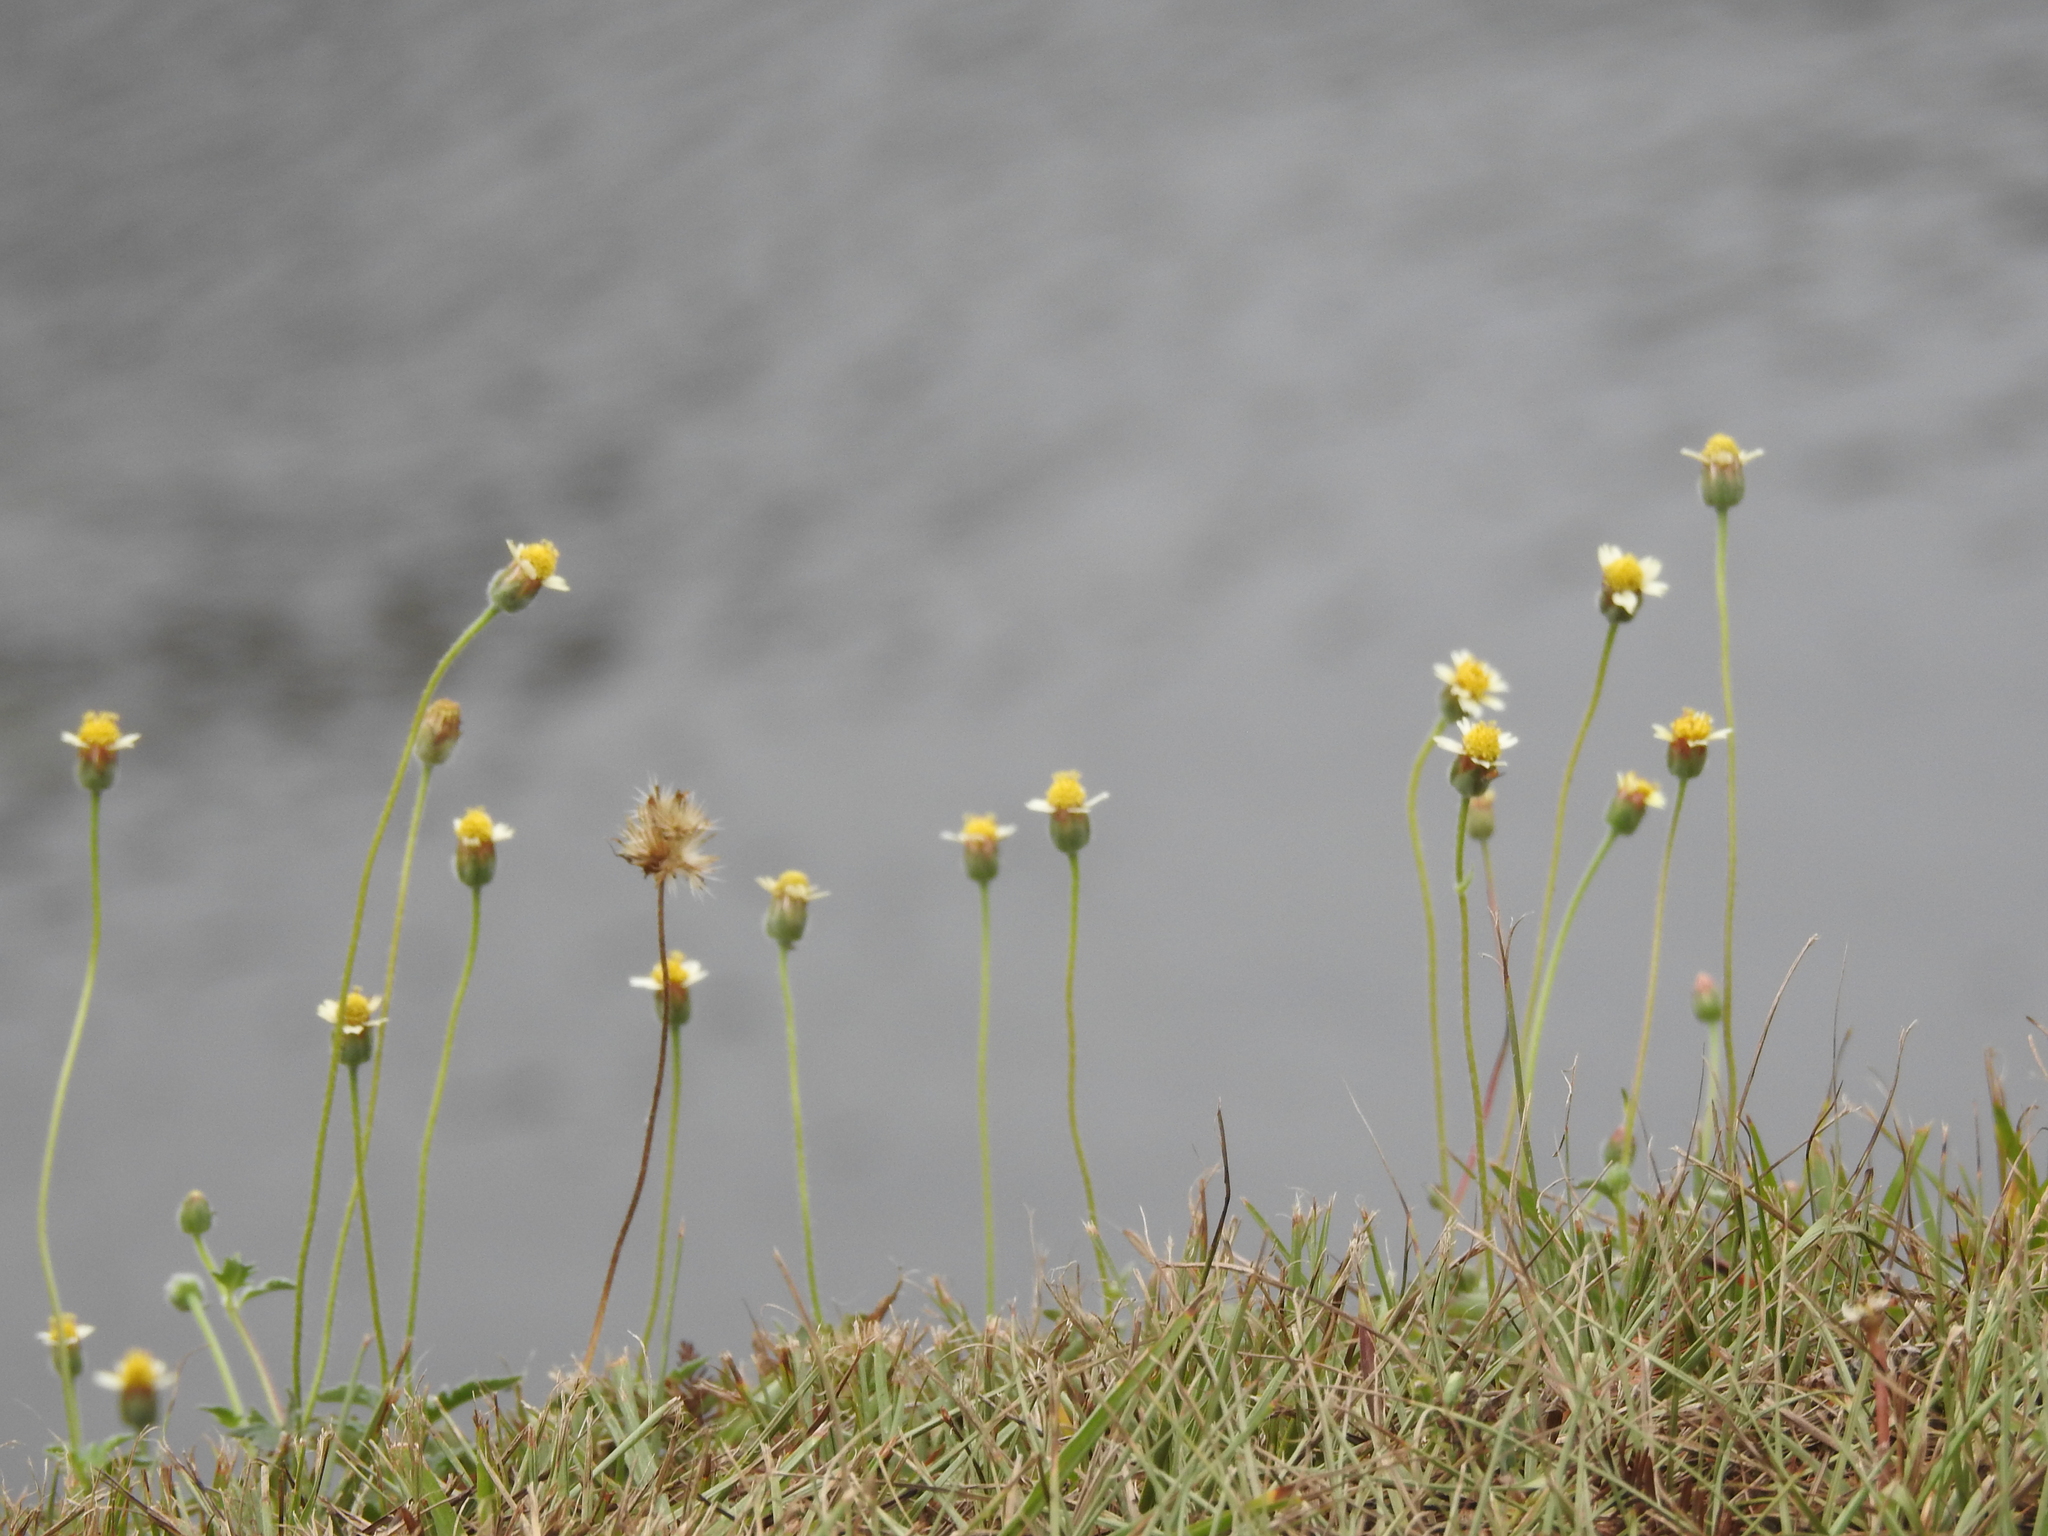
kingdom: Plantae
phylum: Tracheophyta
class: Magnoliopsida
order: Asterales
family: Asteraceae
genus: Tridax
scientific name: Tridax procumbens
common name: Coatbuttons
